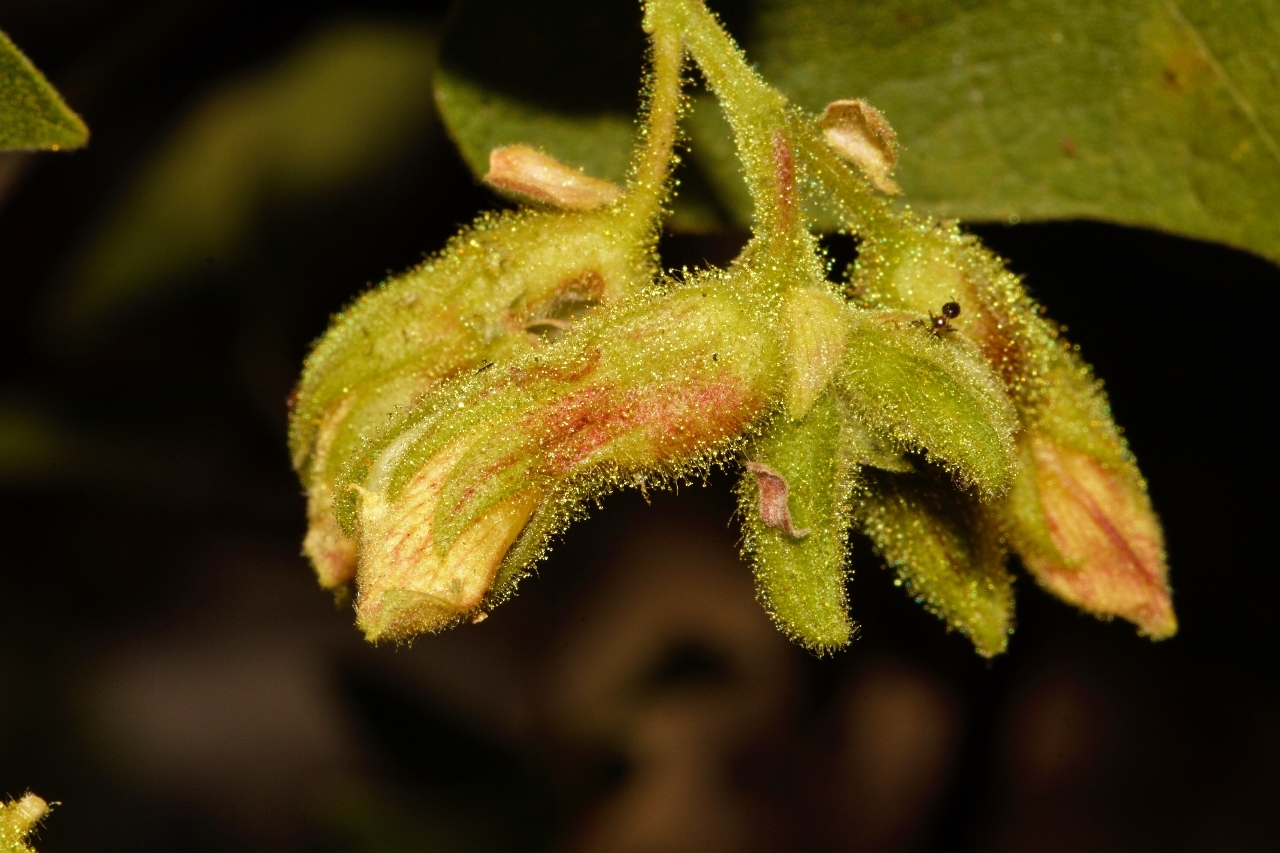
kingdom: Plantae
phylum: Tracheophyta
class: Magnoliopsida
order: Fabales
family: Fabaceae
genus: Rhynchosia
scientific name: Rhynchosia resinosa
